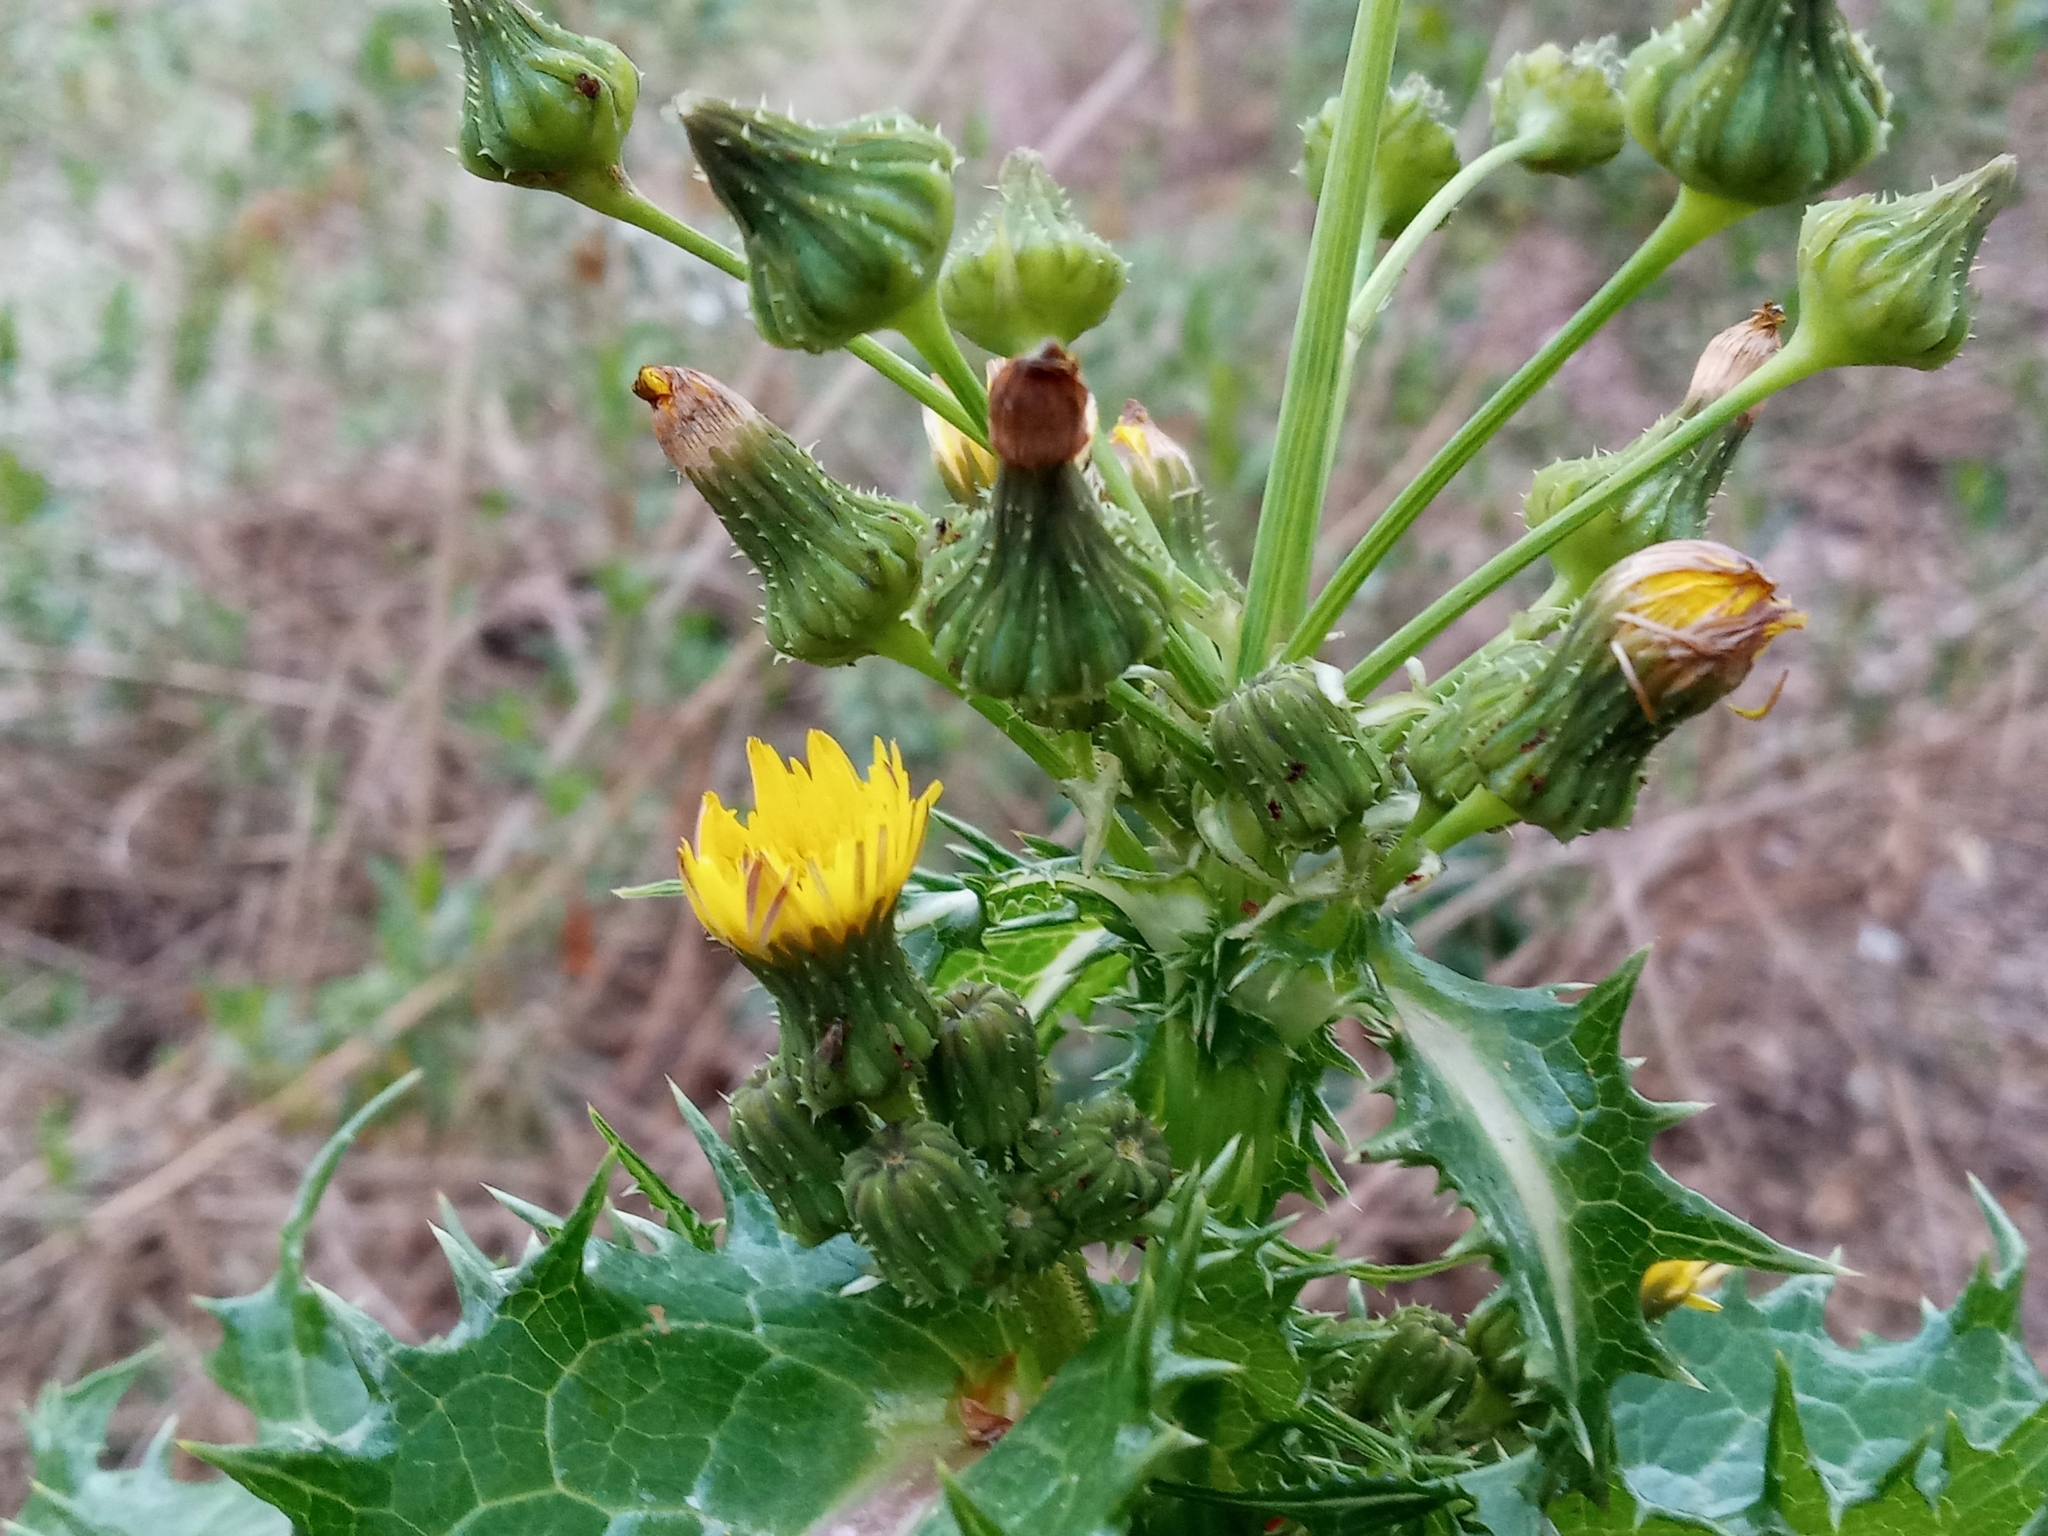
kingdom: Plantae
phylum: Tracheophyta
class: Magnoliopsida
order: Asterales
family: Asteraceae
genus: Sonchus
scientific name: Sonchus asper
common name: Prickly sow-thistle
